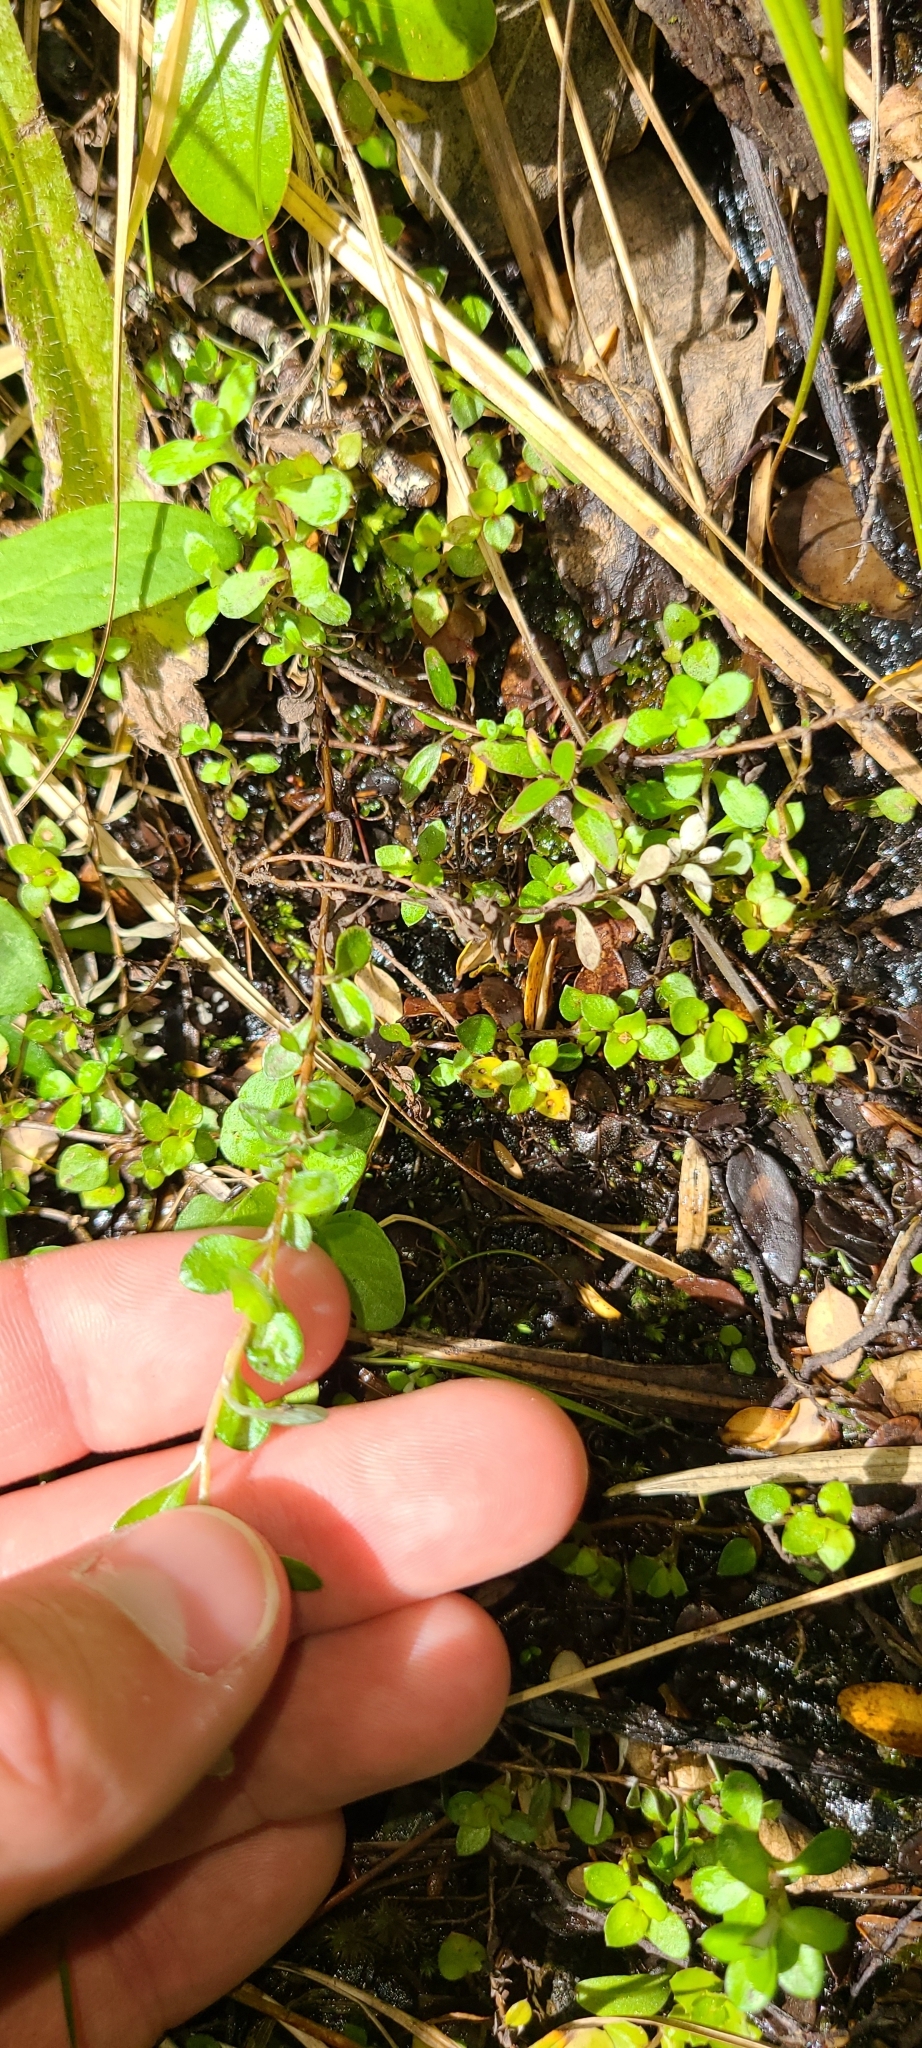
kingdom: Plantae
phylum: Tracheophyta
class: Magnoliopsida
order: Gentianales
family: Rubiaceae
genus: Coprosma
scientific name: Coprosma rhamnoides
